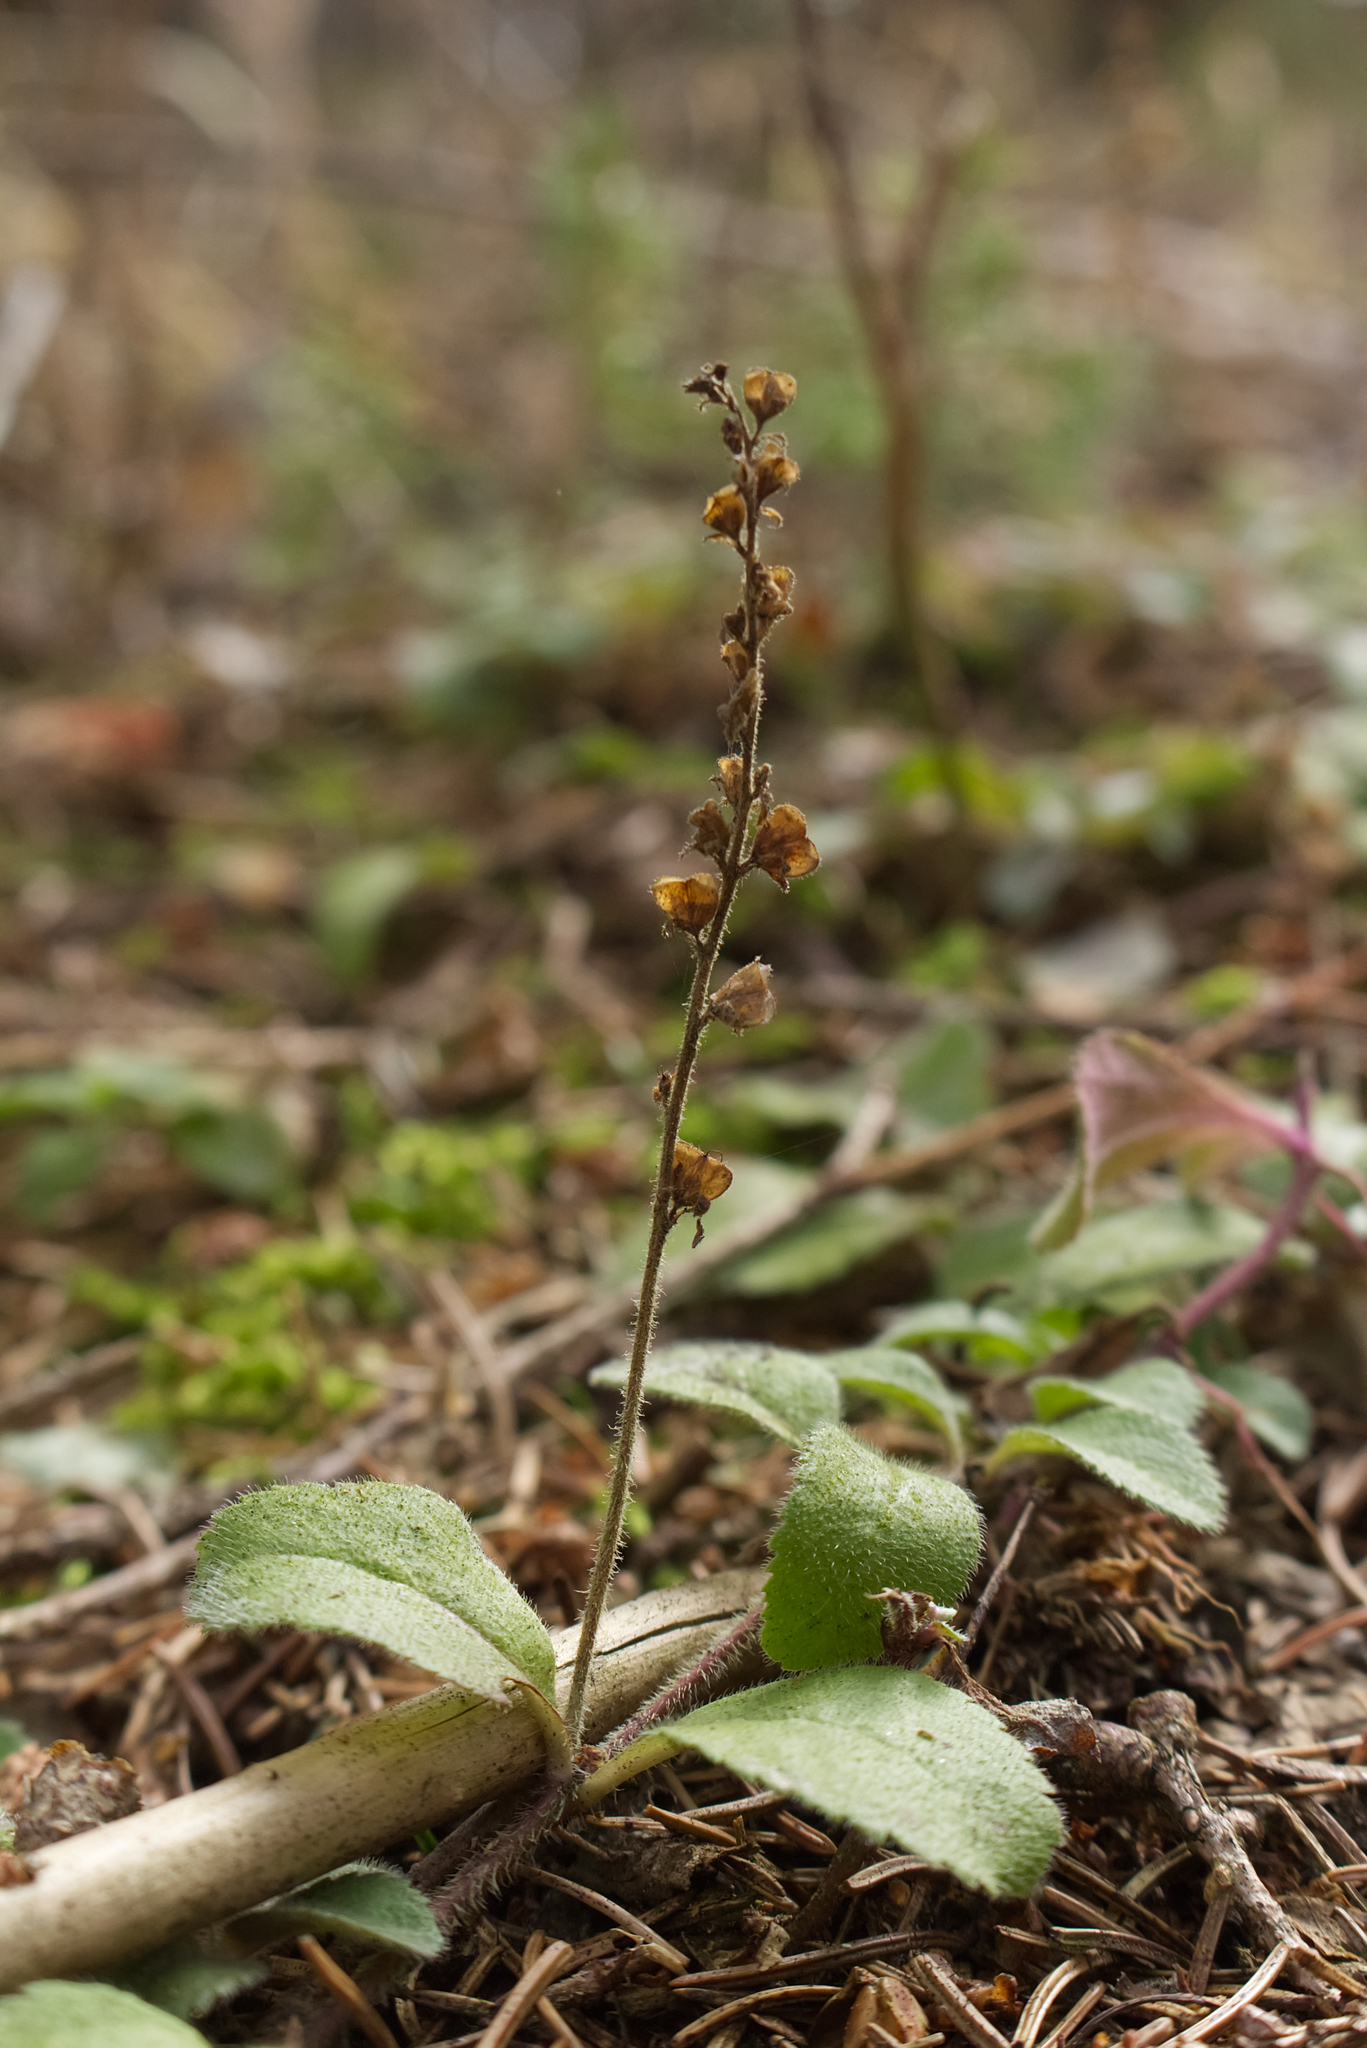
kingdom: Plantae
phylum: Tracheophyta
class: Magnoliopsida
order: Lamiales
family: Plantaginaceae
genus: Veronica
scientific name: Veronica officinalis
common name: Common speedwell
